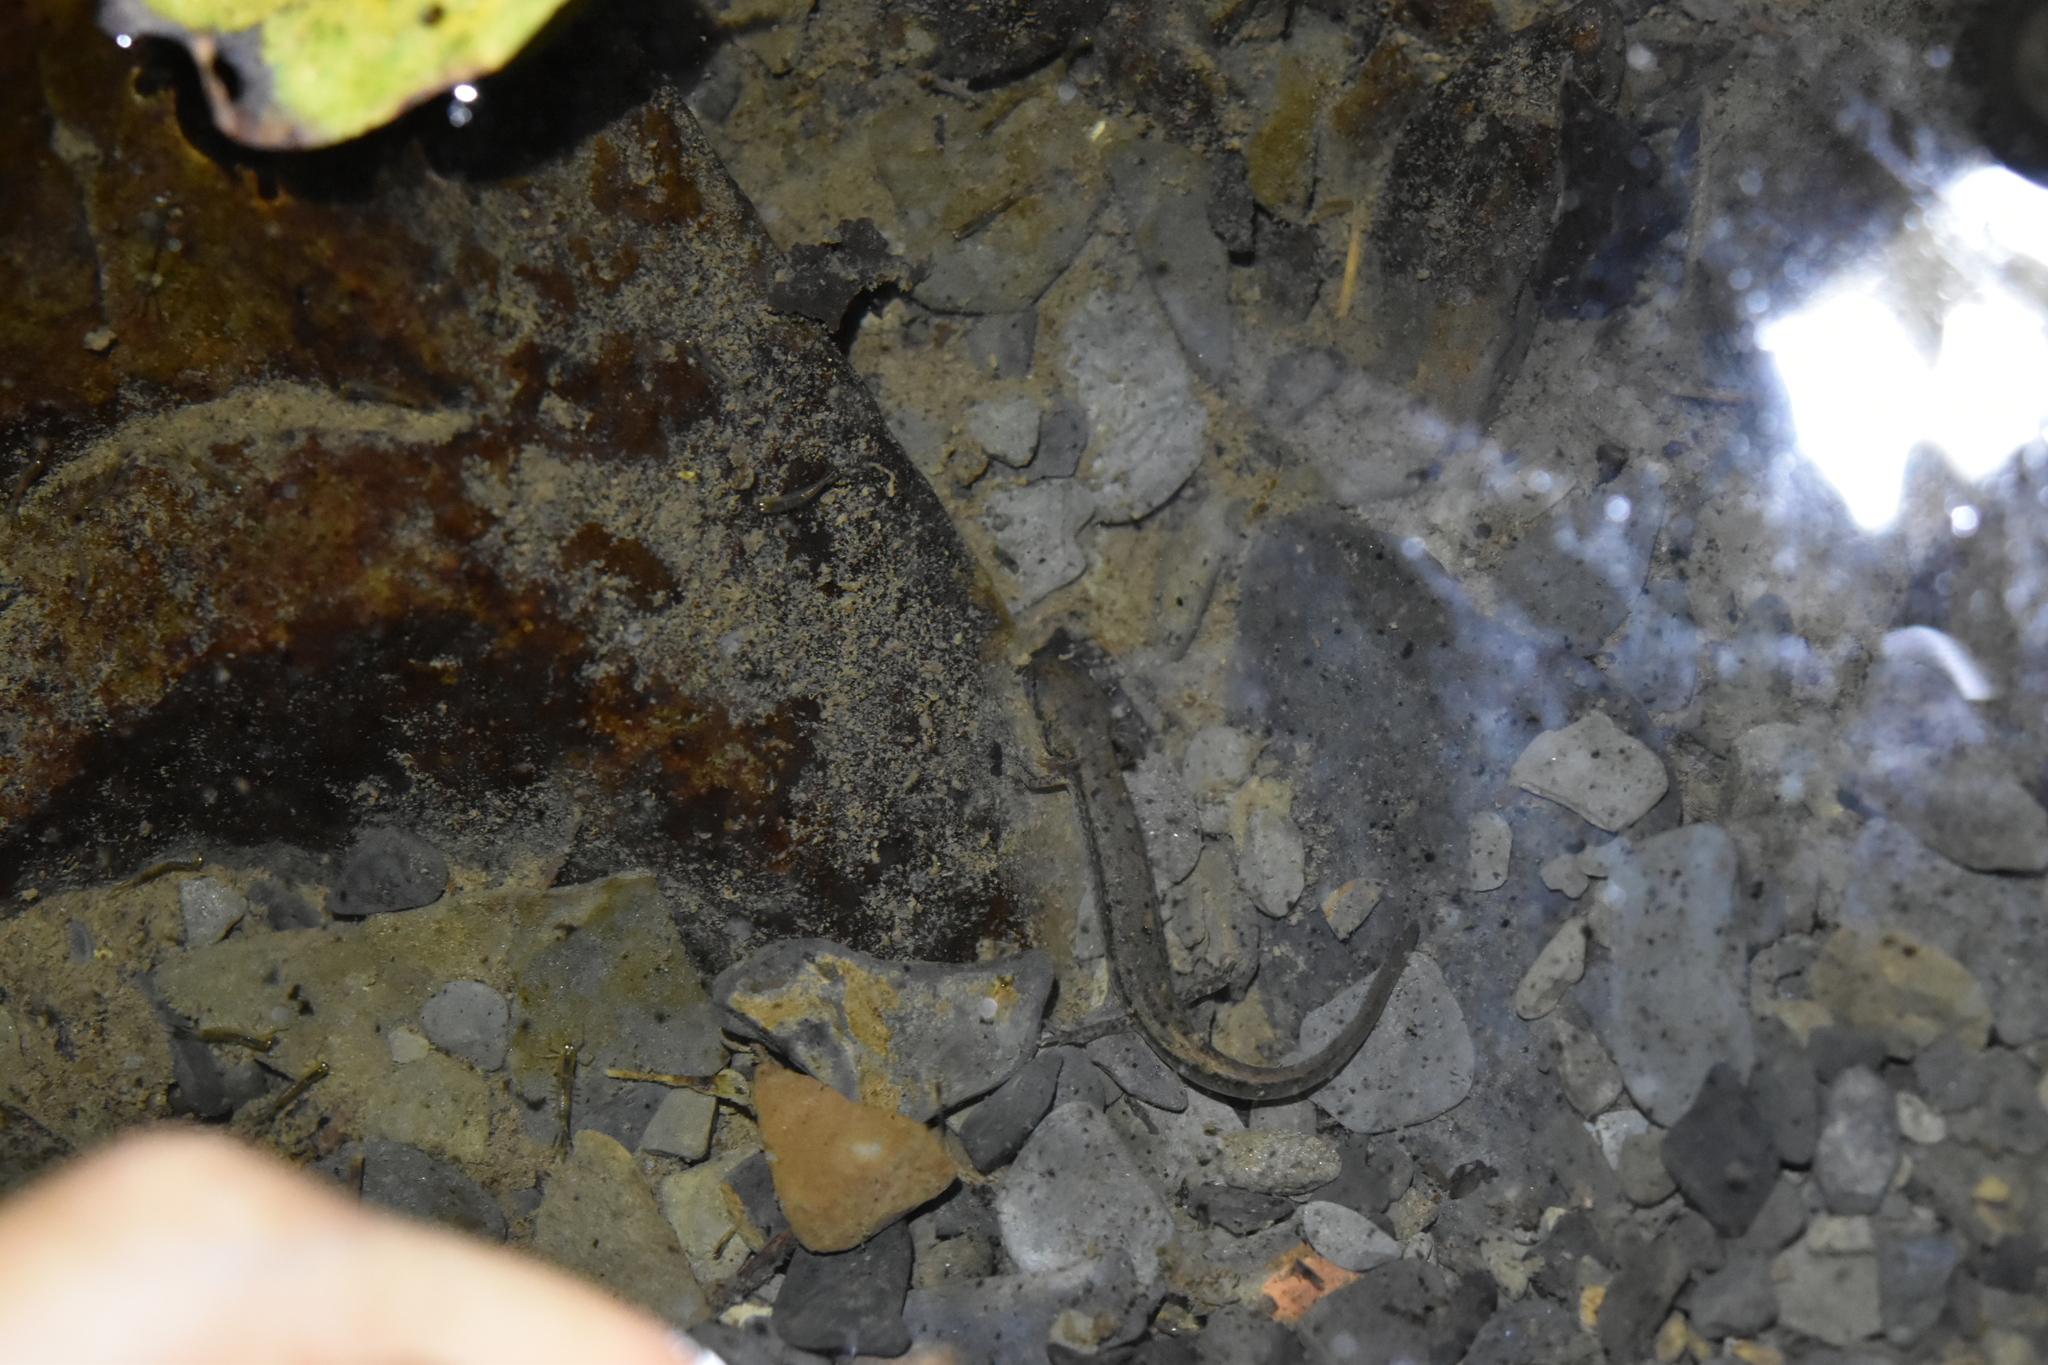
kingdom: Animalia
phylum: Chordata
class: Amphibia
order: Caudata
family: Plethodontidae
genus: Eurycea
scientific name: Eurycea bislineata
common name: Northern two-lined salamander
